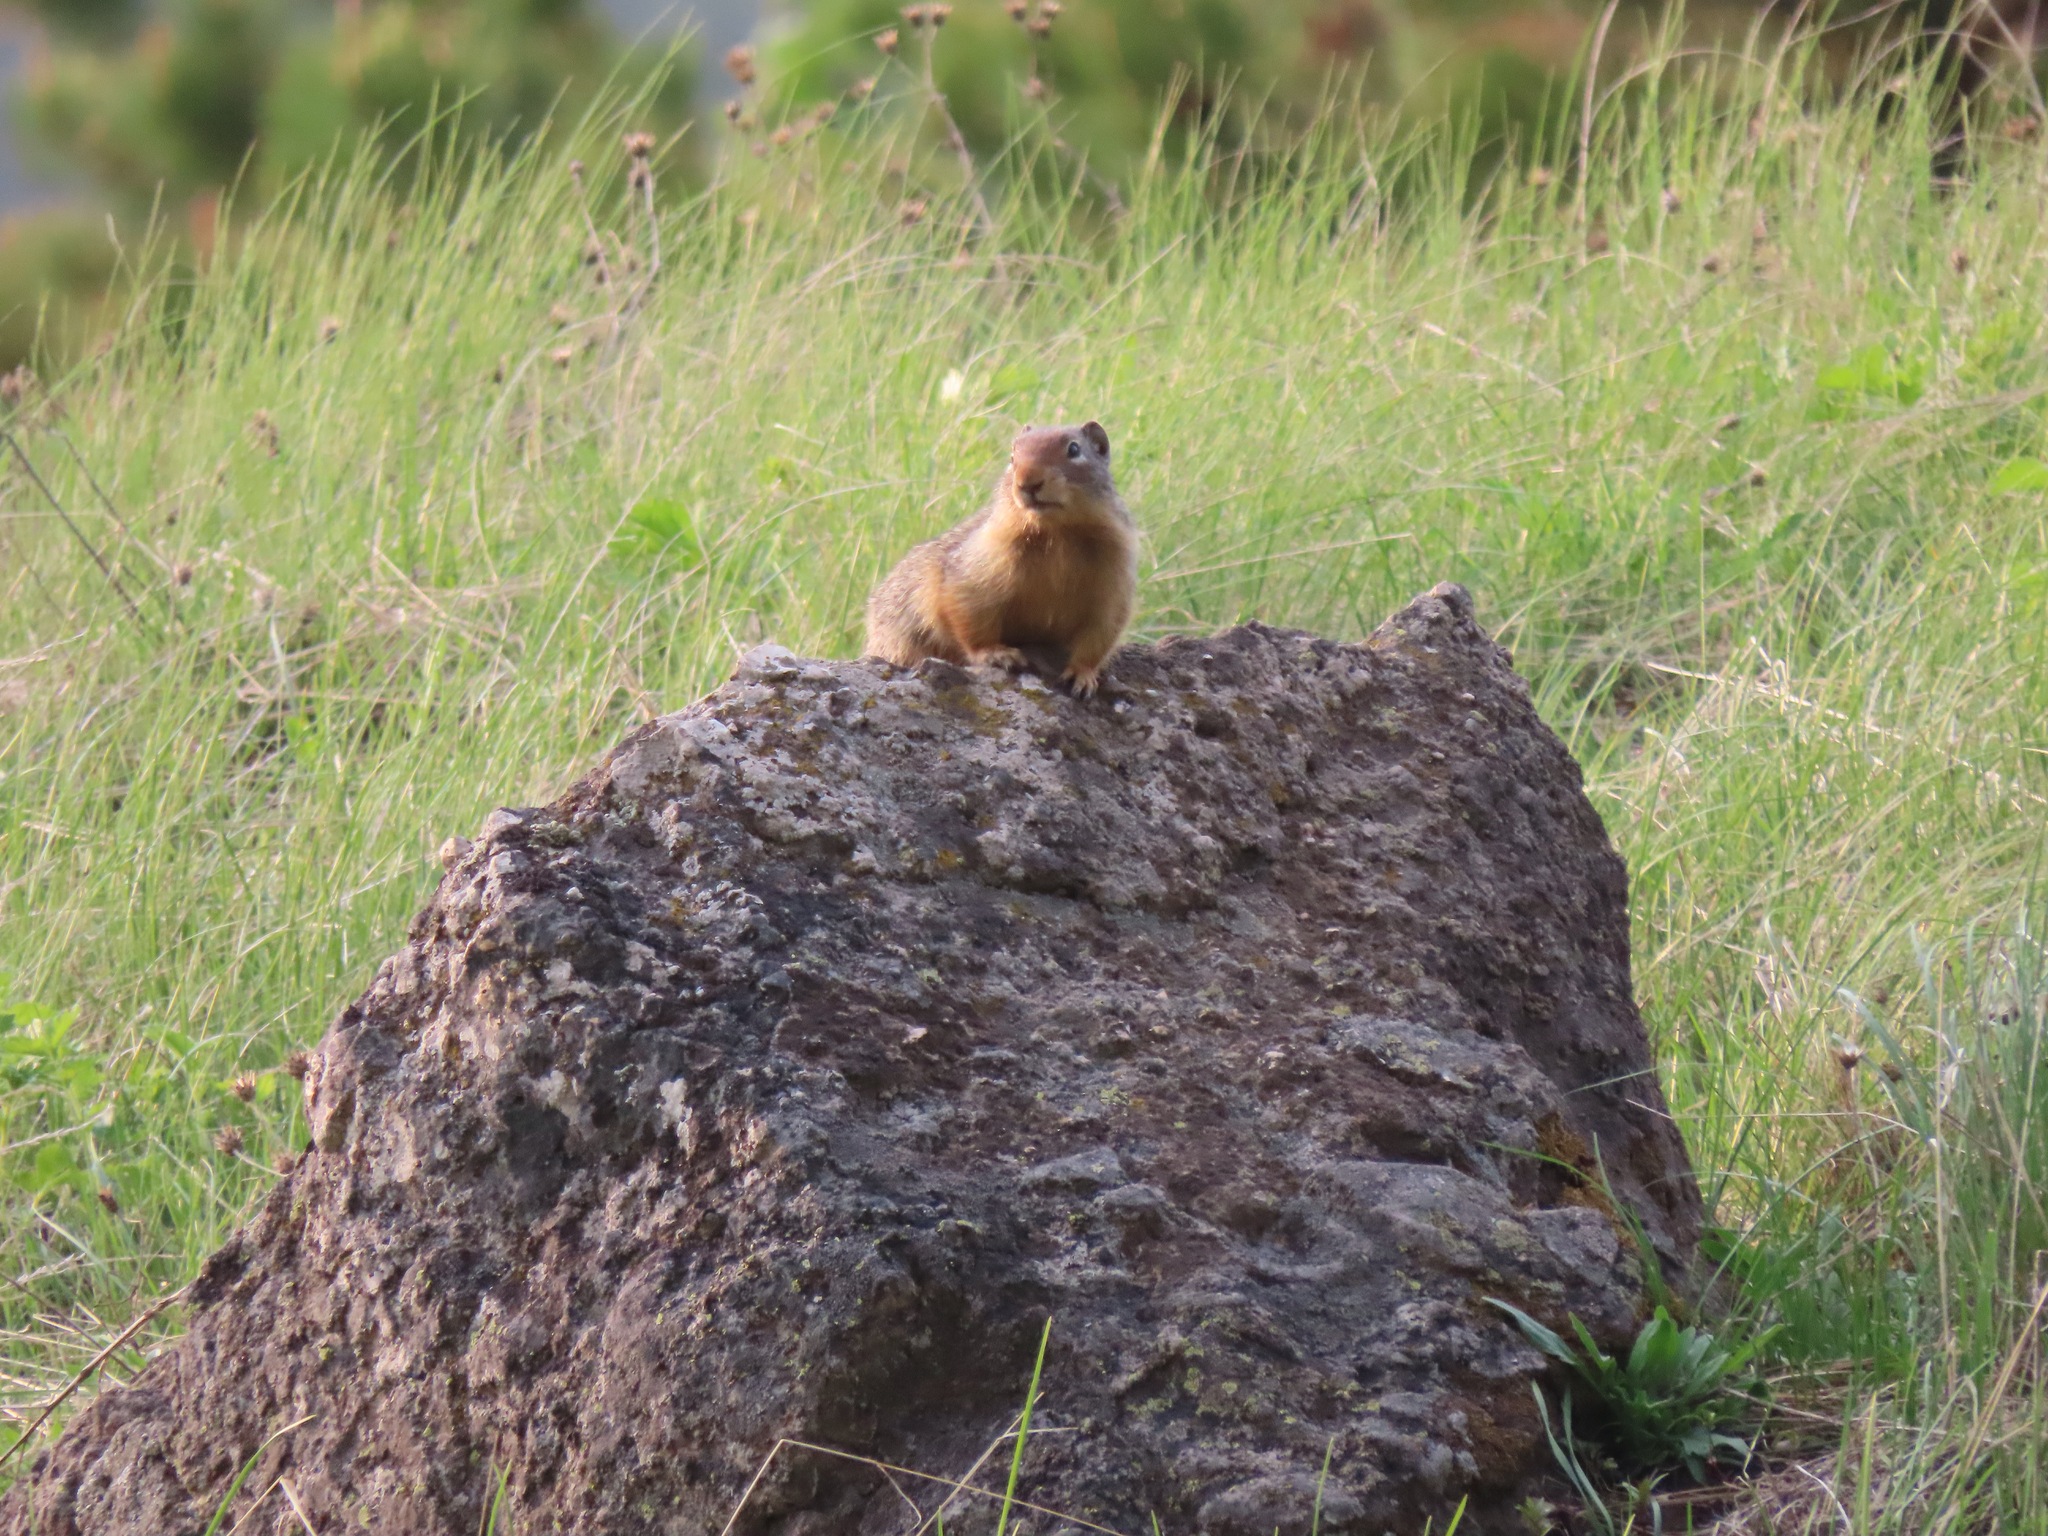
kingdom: Animalia
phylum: Chordata
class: Mammalia
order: Rodentia
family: Sciuridae
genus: Urocitellus
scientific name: Urocitellus columbianus
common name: Columbian ground squirrel
